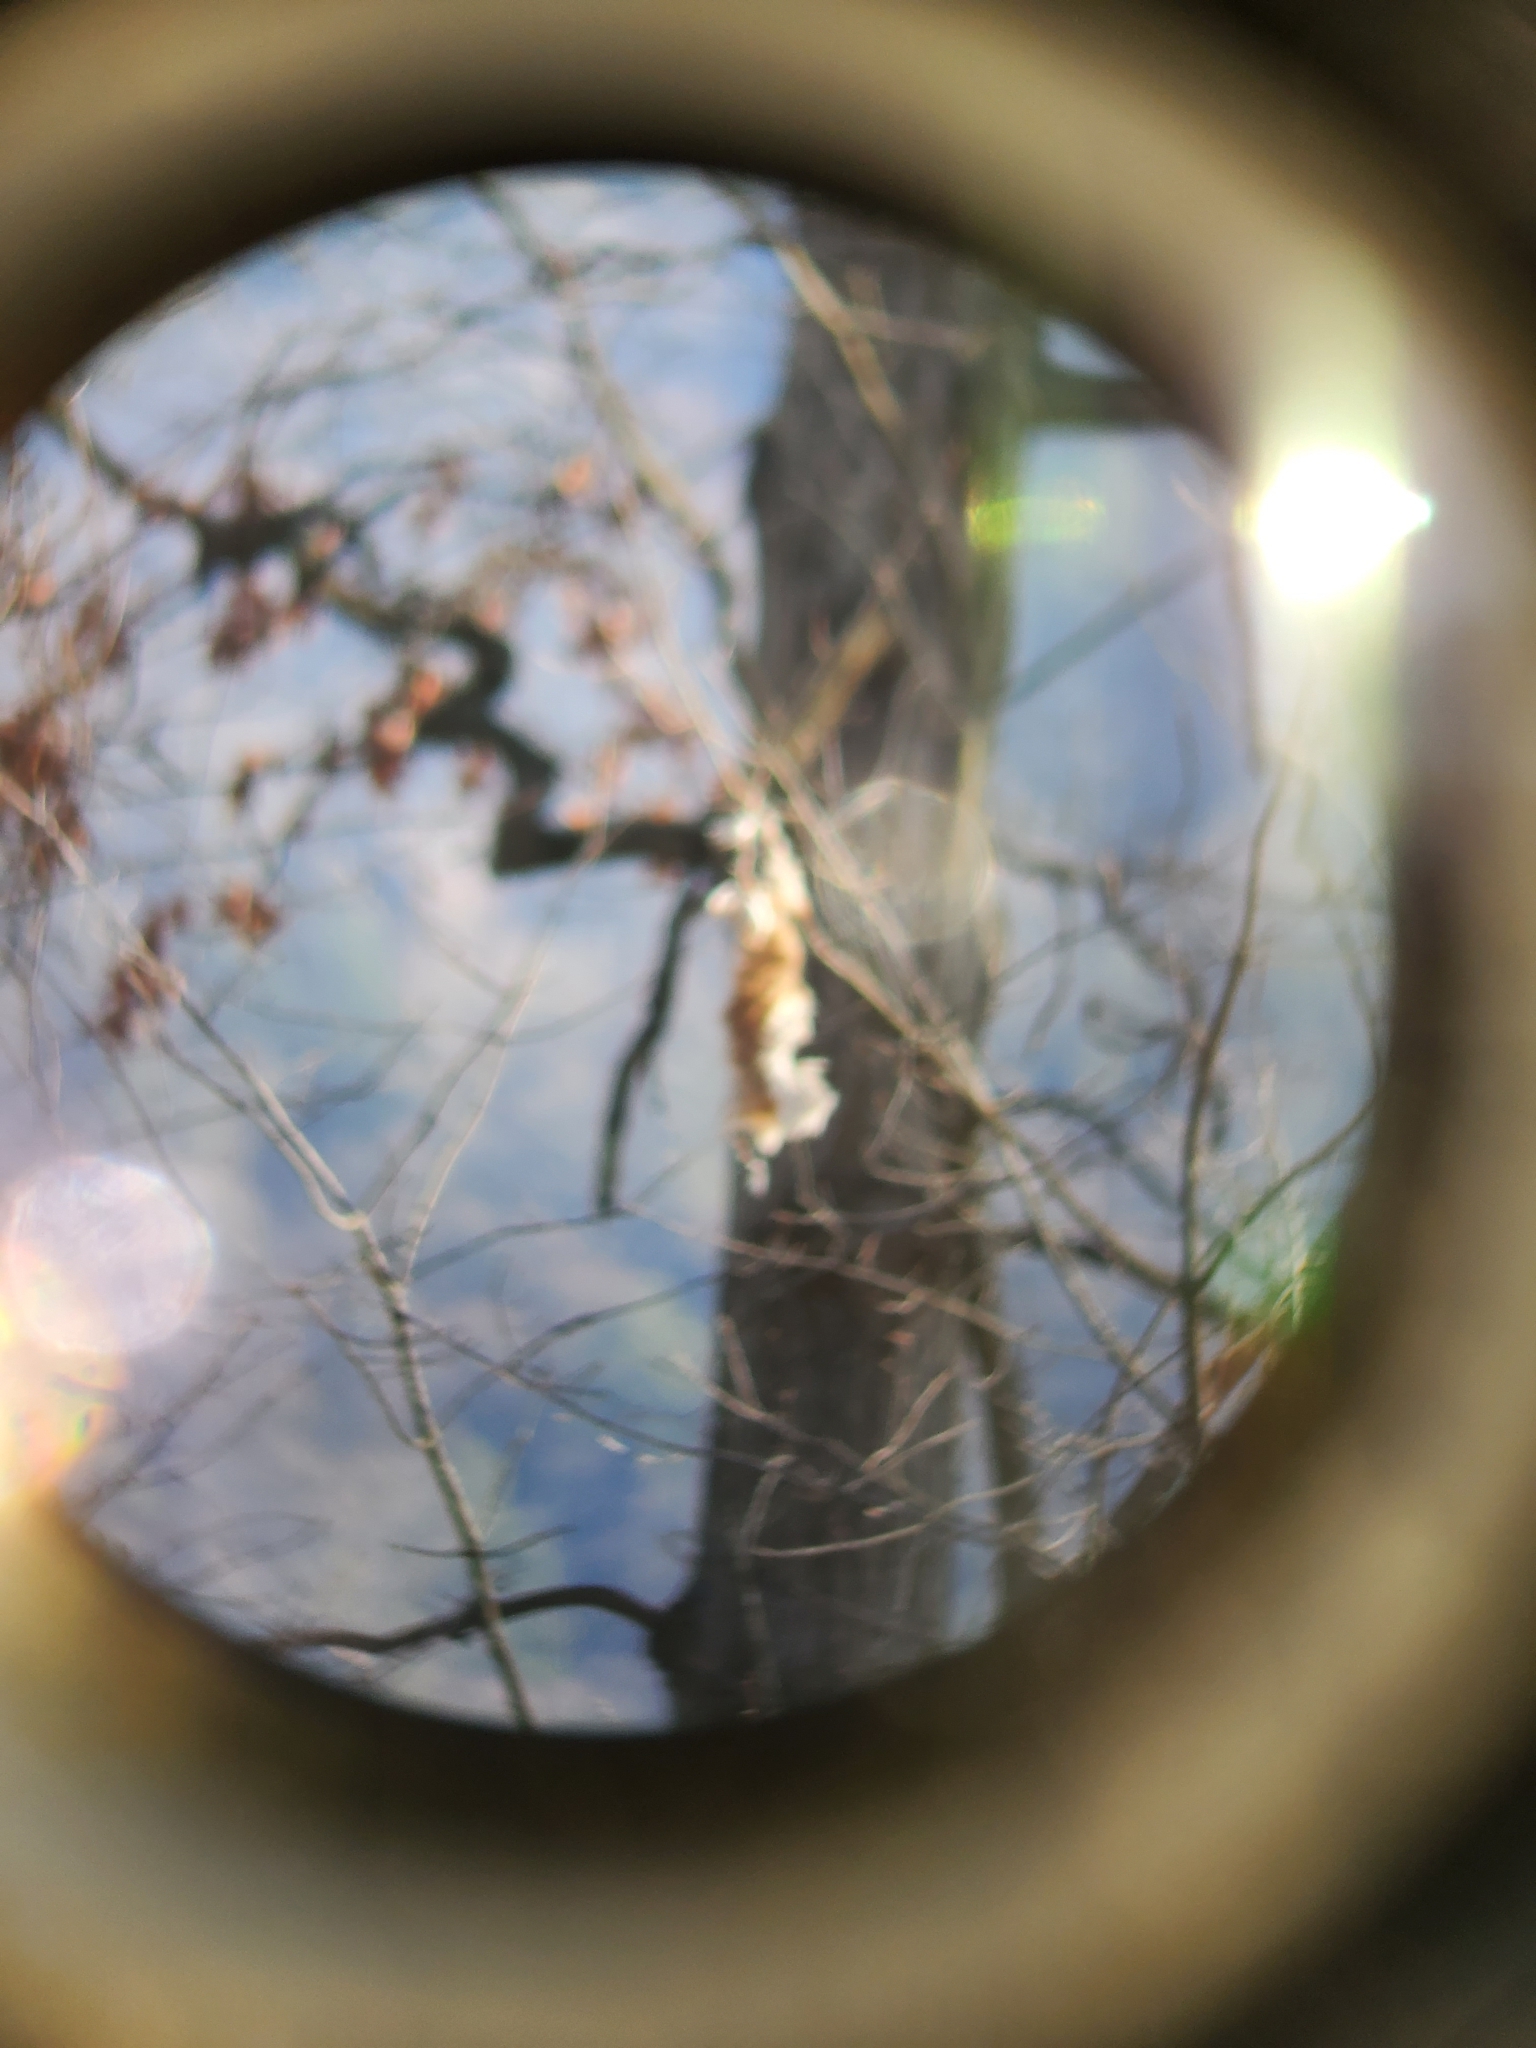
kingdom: Animalia
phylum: Chordata
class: Mammalia
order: Artiodactyla
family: Cervidae
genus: Odocoileus
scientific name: Odocoileus virginianus
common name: White-tailed deer
